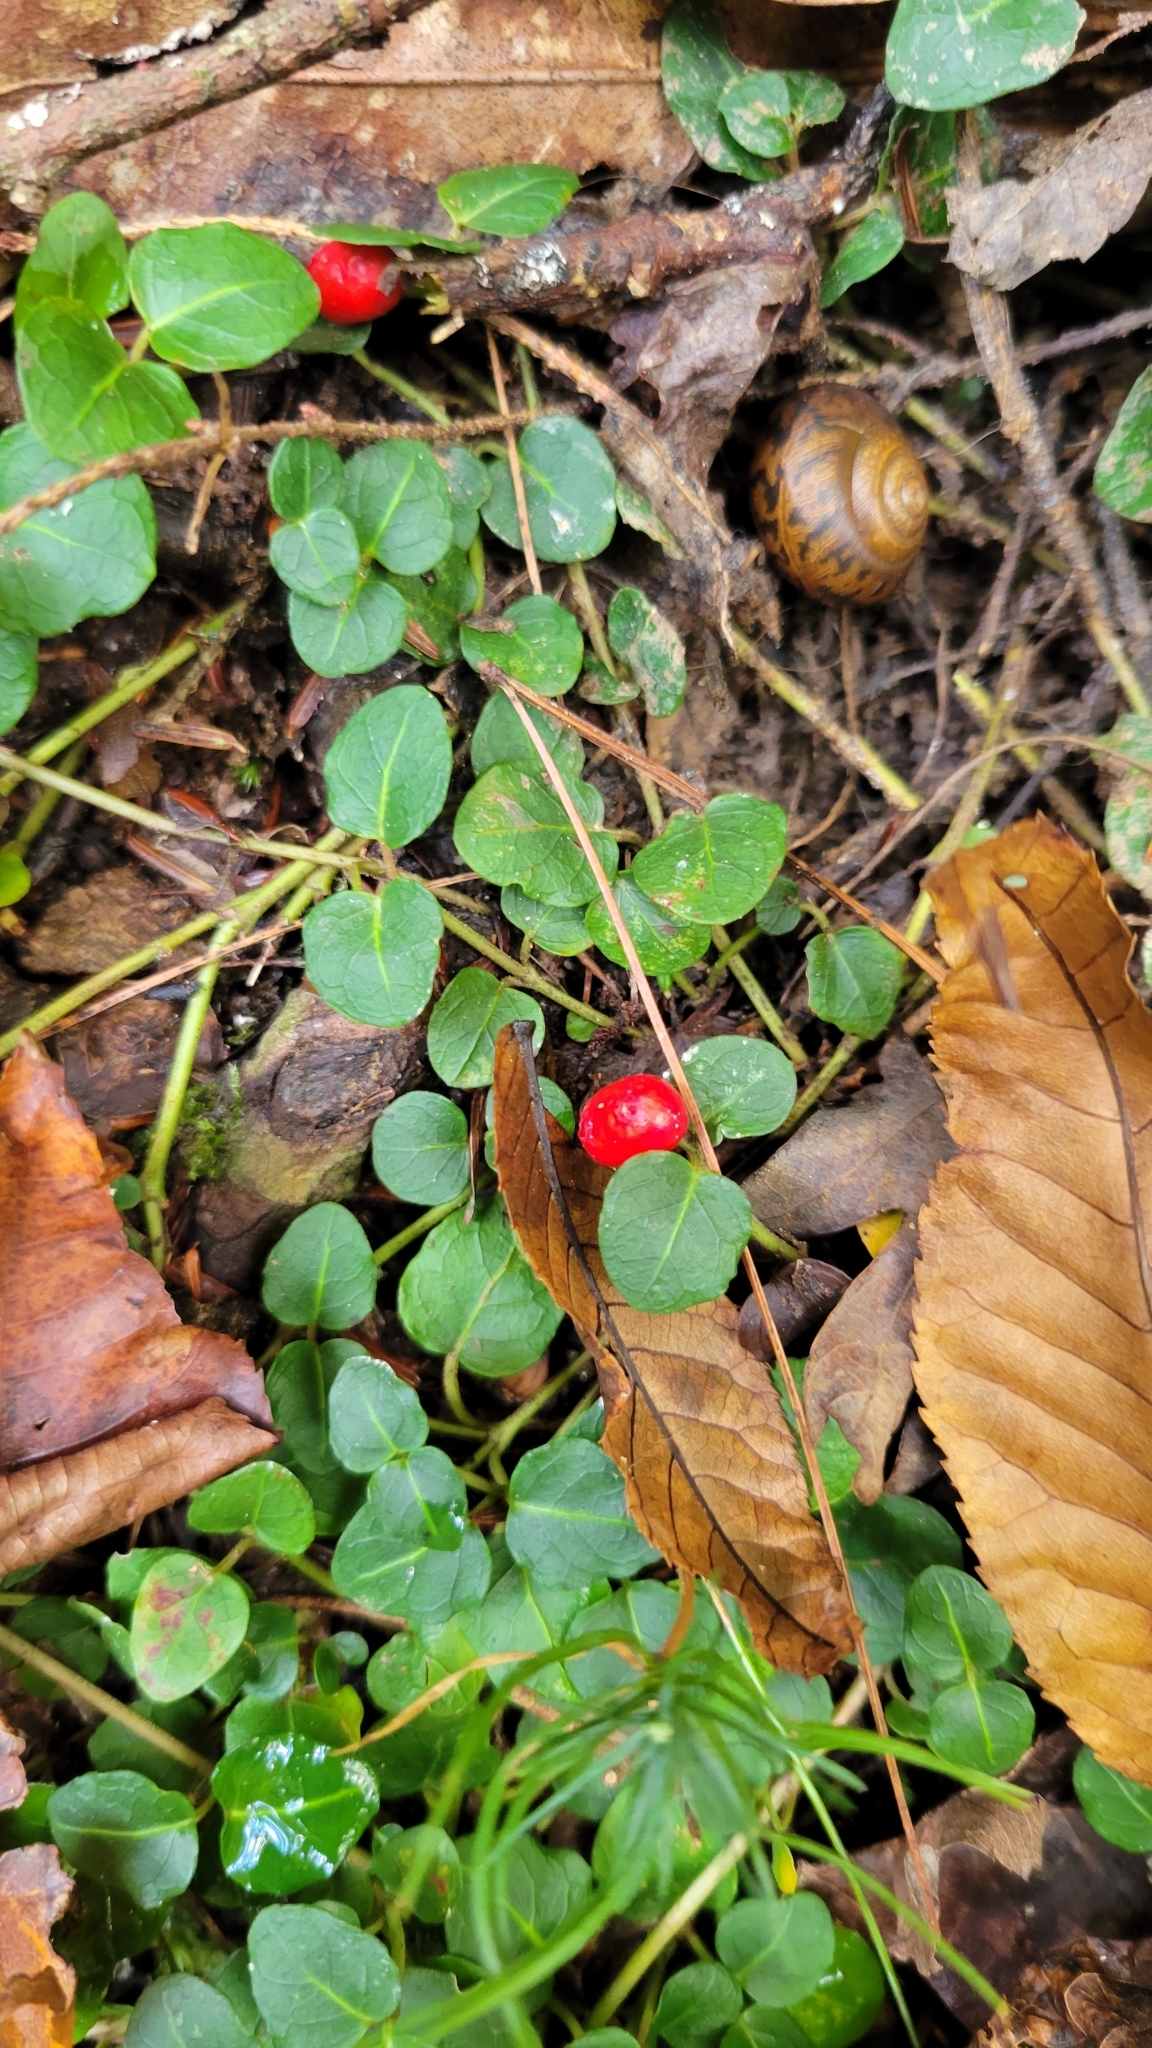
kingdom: Plantae
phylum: Tracheophyta
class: Magnoliopsida
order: Gentianales
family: Rubiaceae
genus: Mitchella
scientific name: Mitchella repens
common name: Partridge-berry
